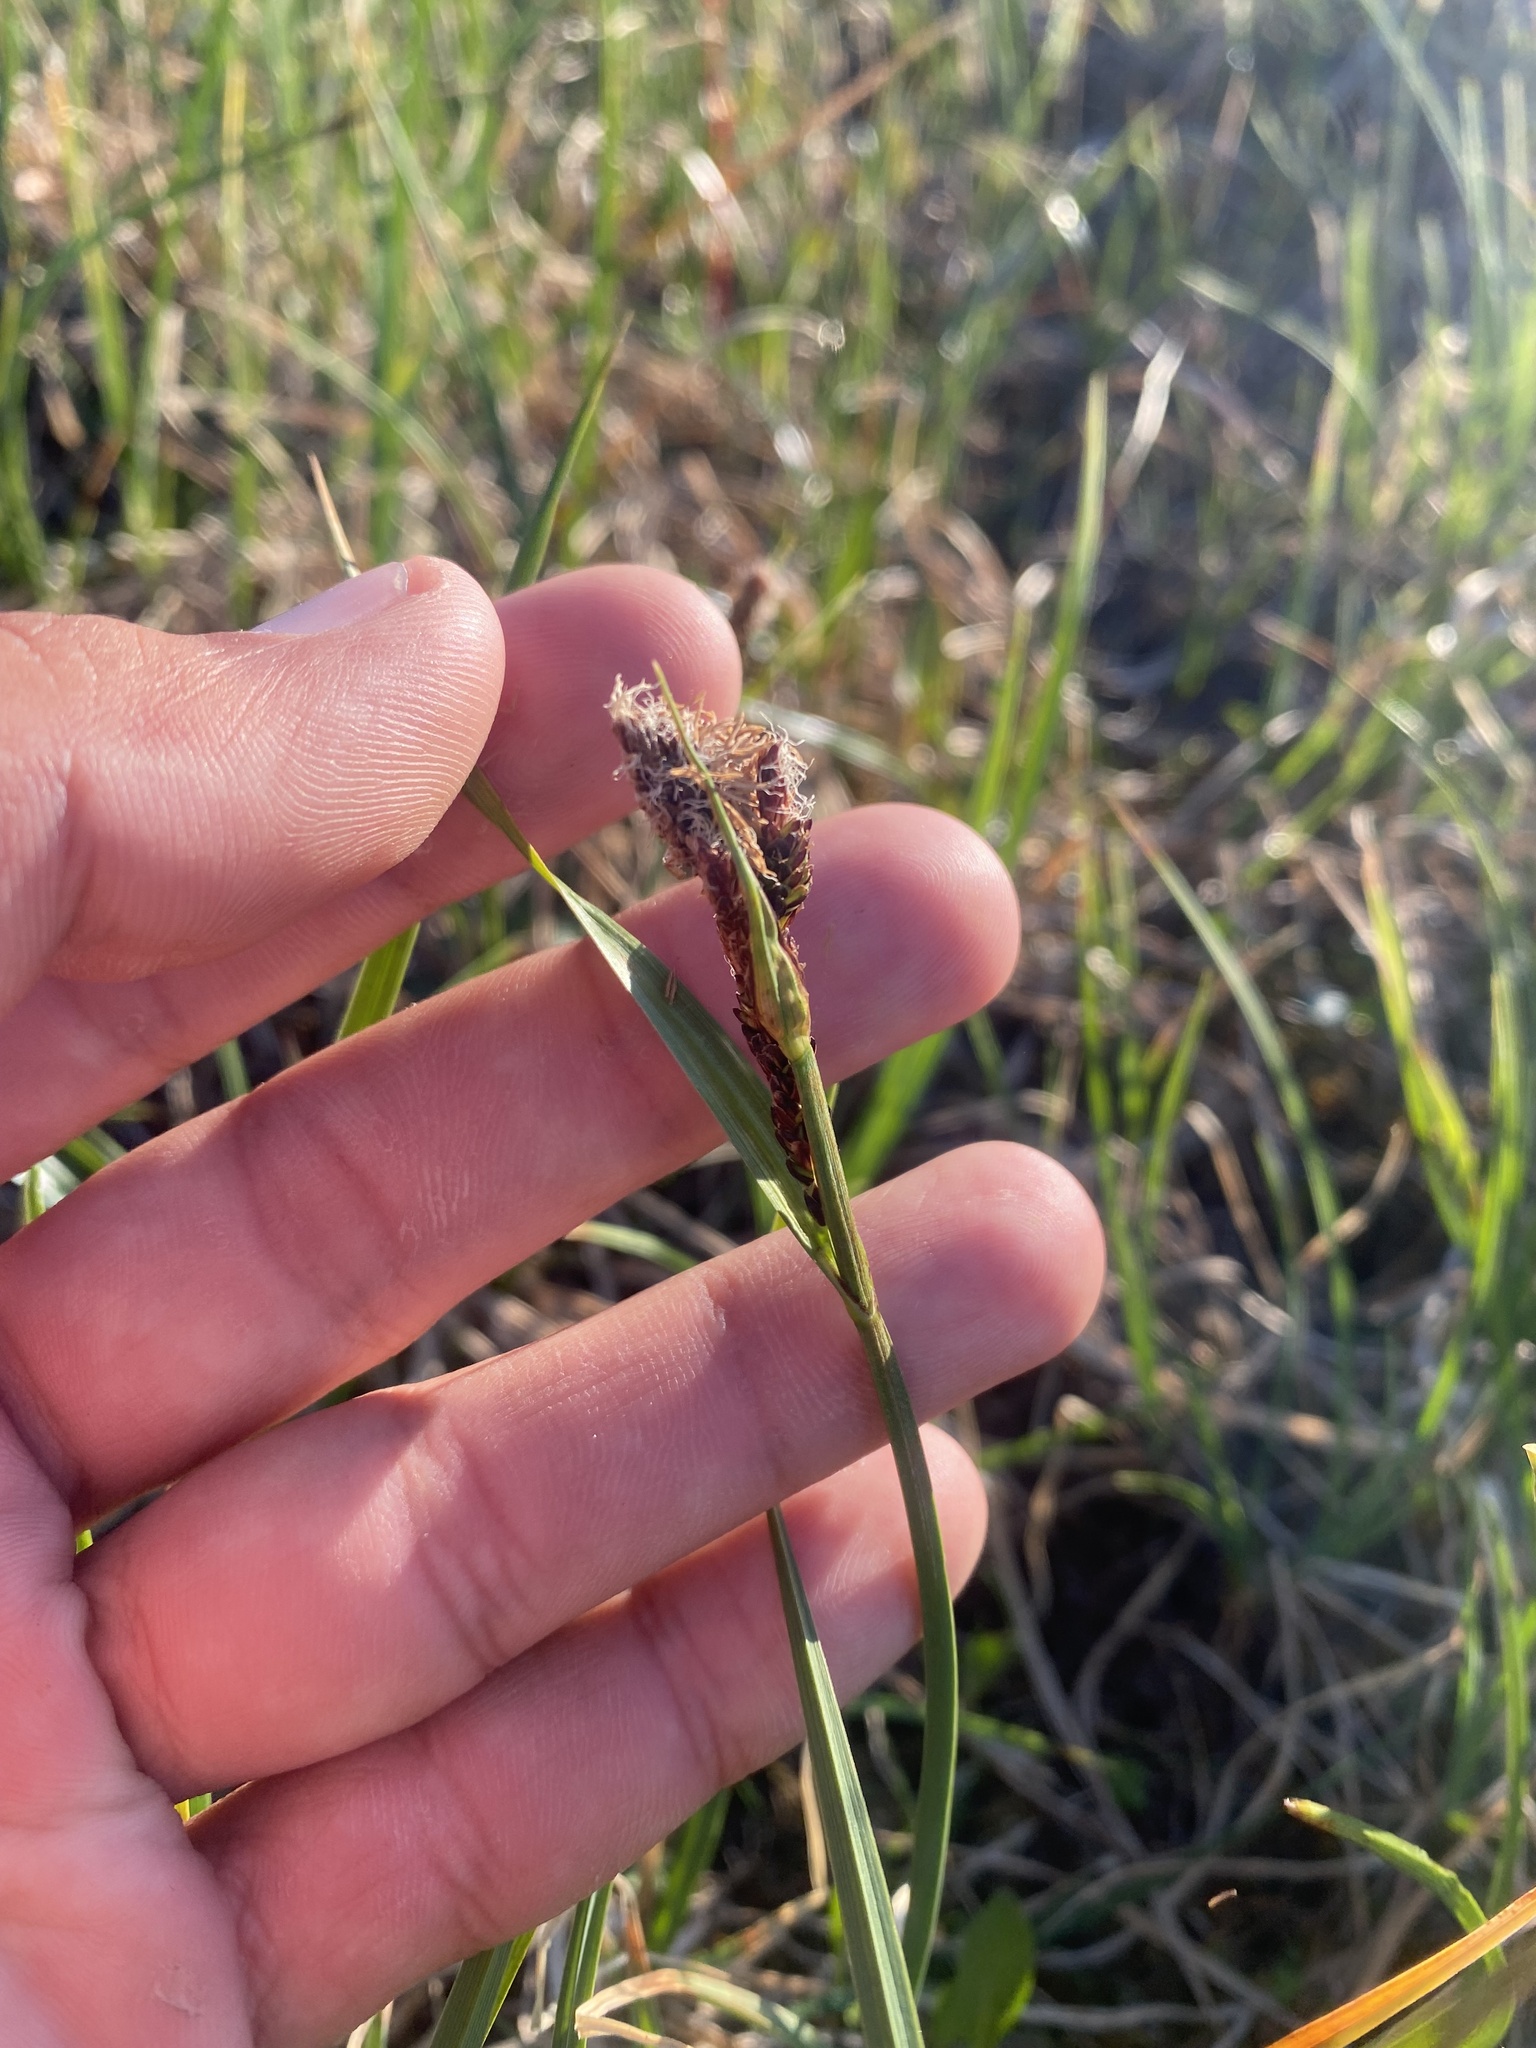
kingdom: Plantae
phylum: Tracheophyta
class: Liliopsida
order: Poales
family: Cyperaceae
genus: Carex
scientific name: Carex bigelowii
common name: Stiff sedge
